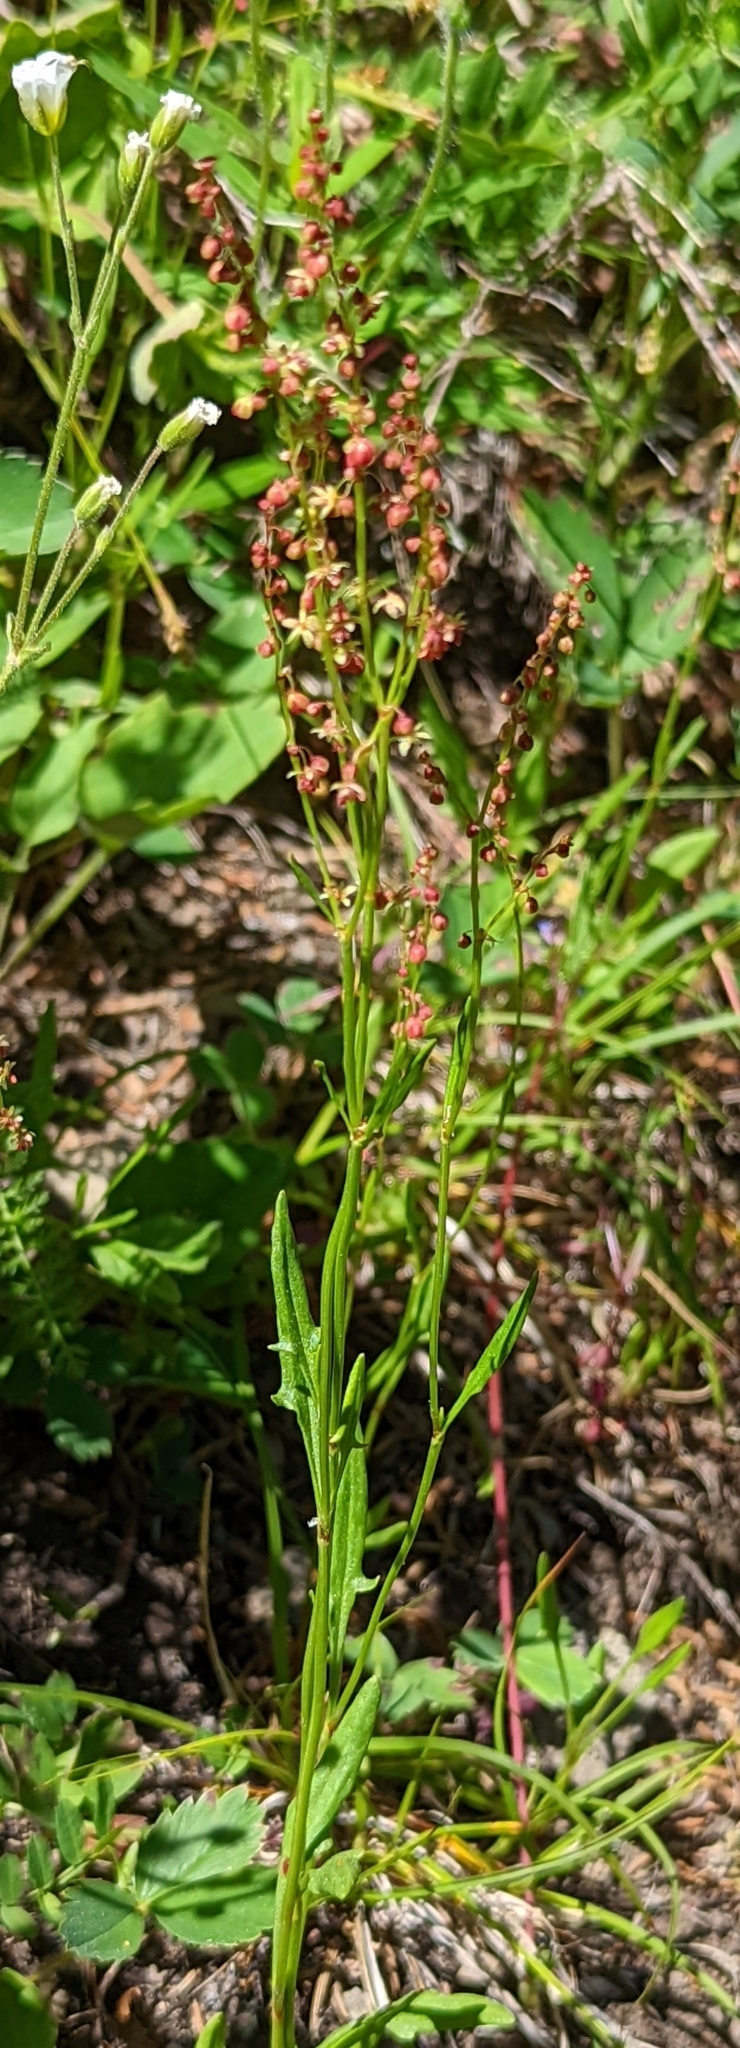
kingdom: Plantae
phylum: Tracheophyta
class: Magnoliopsida
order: Caryophyllales
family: Polygonaceae
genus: Rumex
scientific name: Rumex acetosella
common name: Common sheep sorrel
